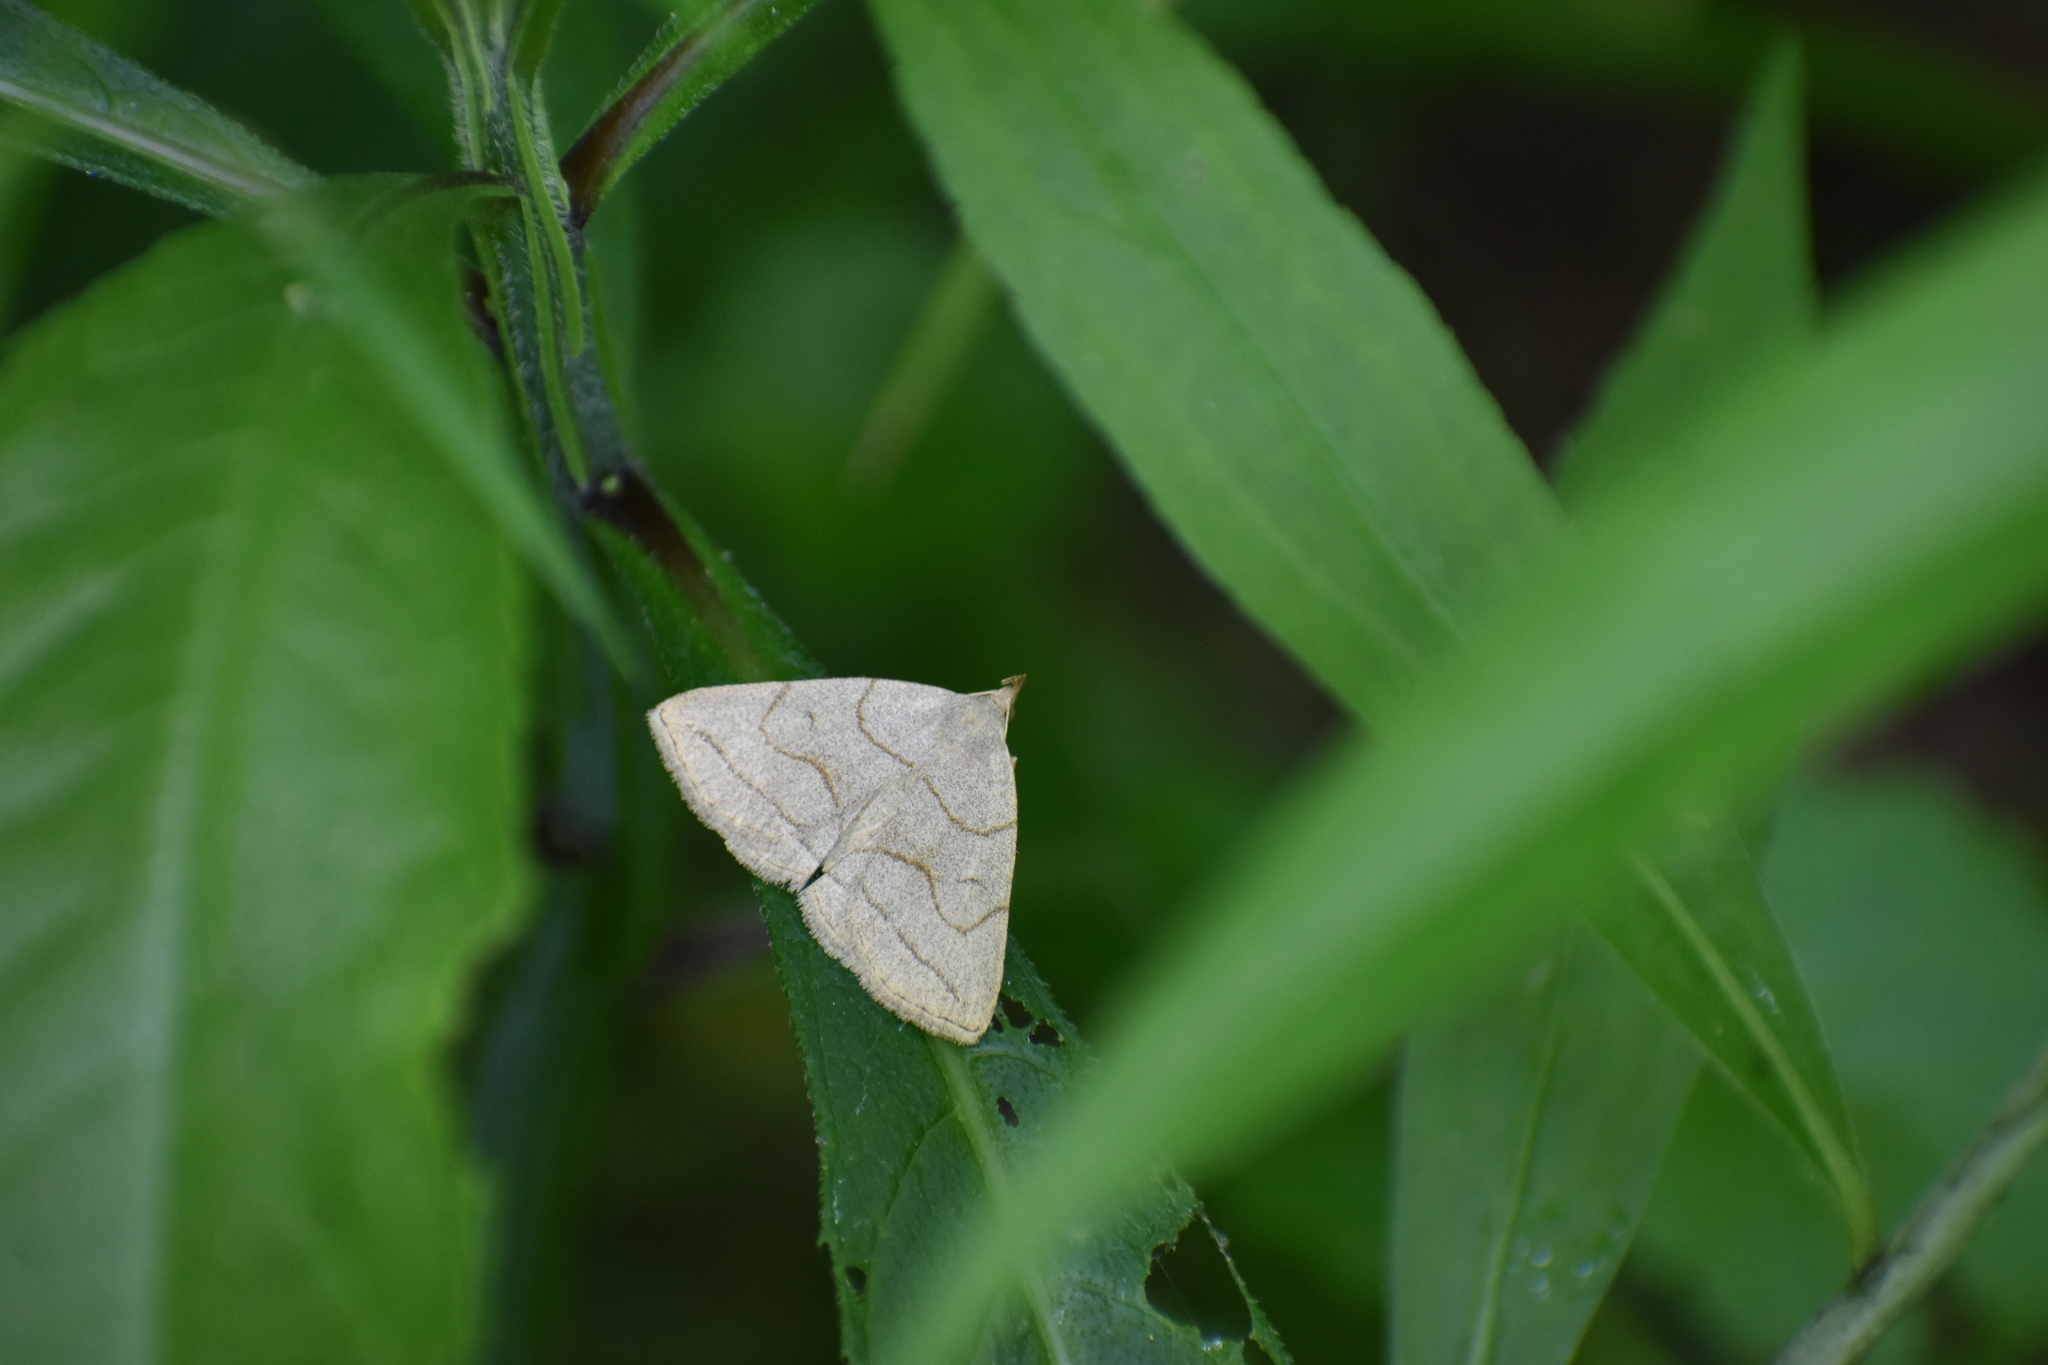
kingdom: Animalia
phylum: Arthropoda
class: Insecta
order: Lepidoptera
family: Erebidae
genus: Zanclognatha
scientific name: Zanclognatha pedipilalis
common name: Grayish fan-foot
